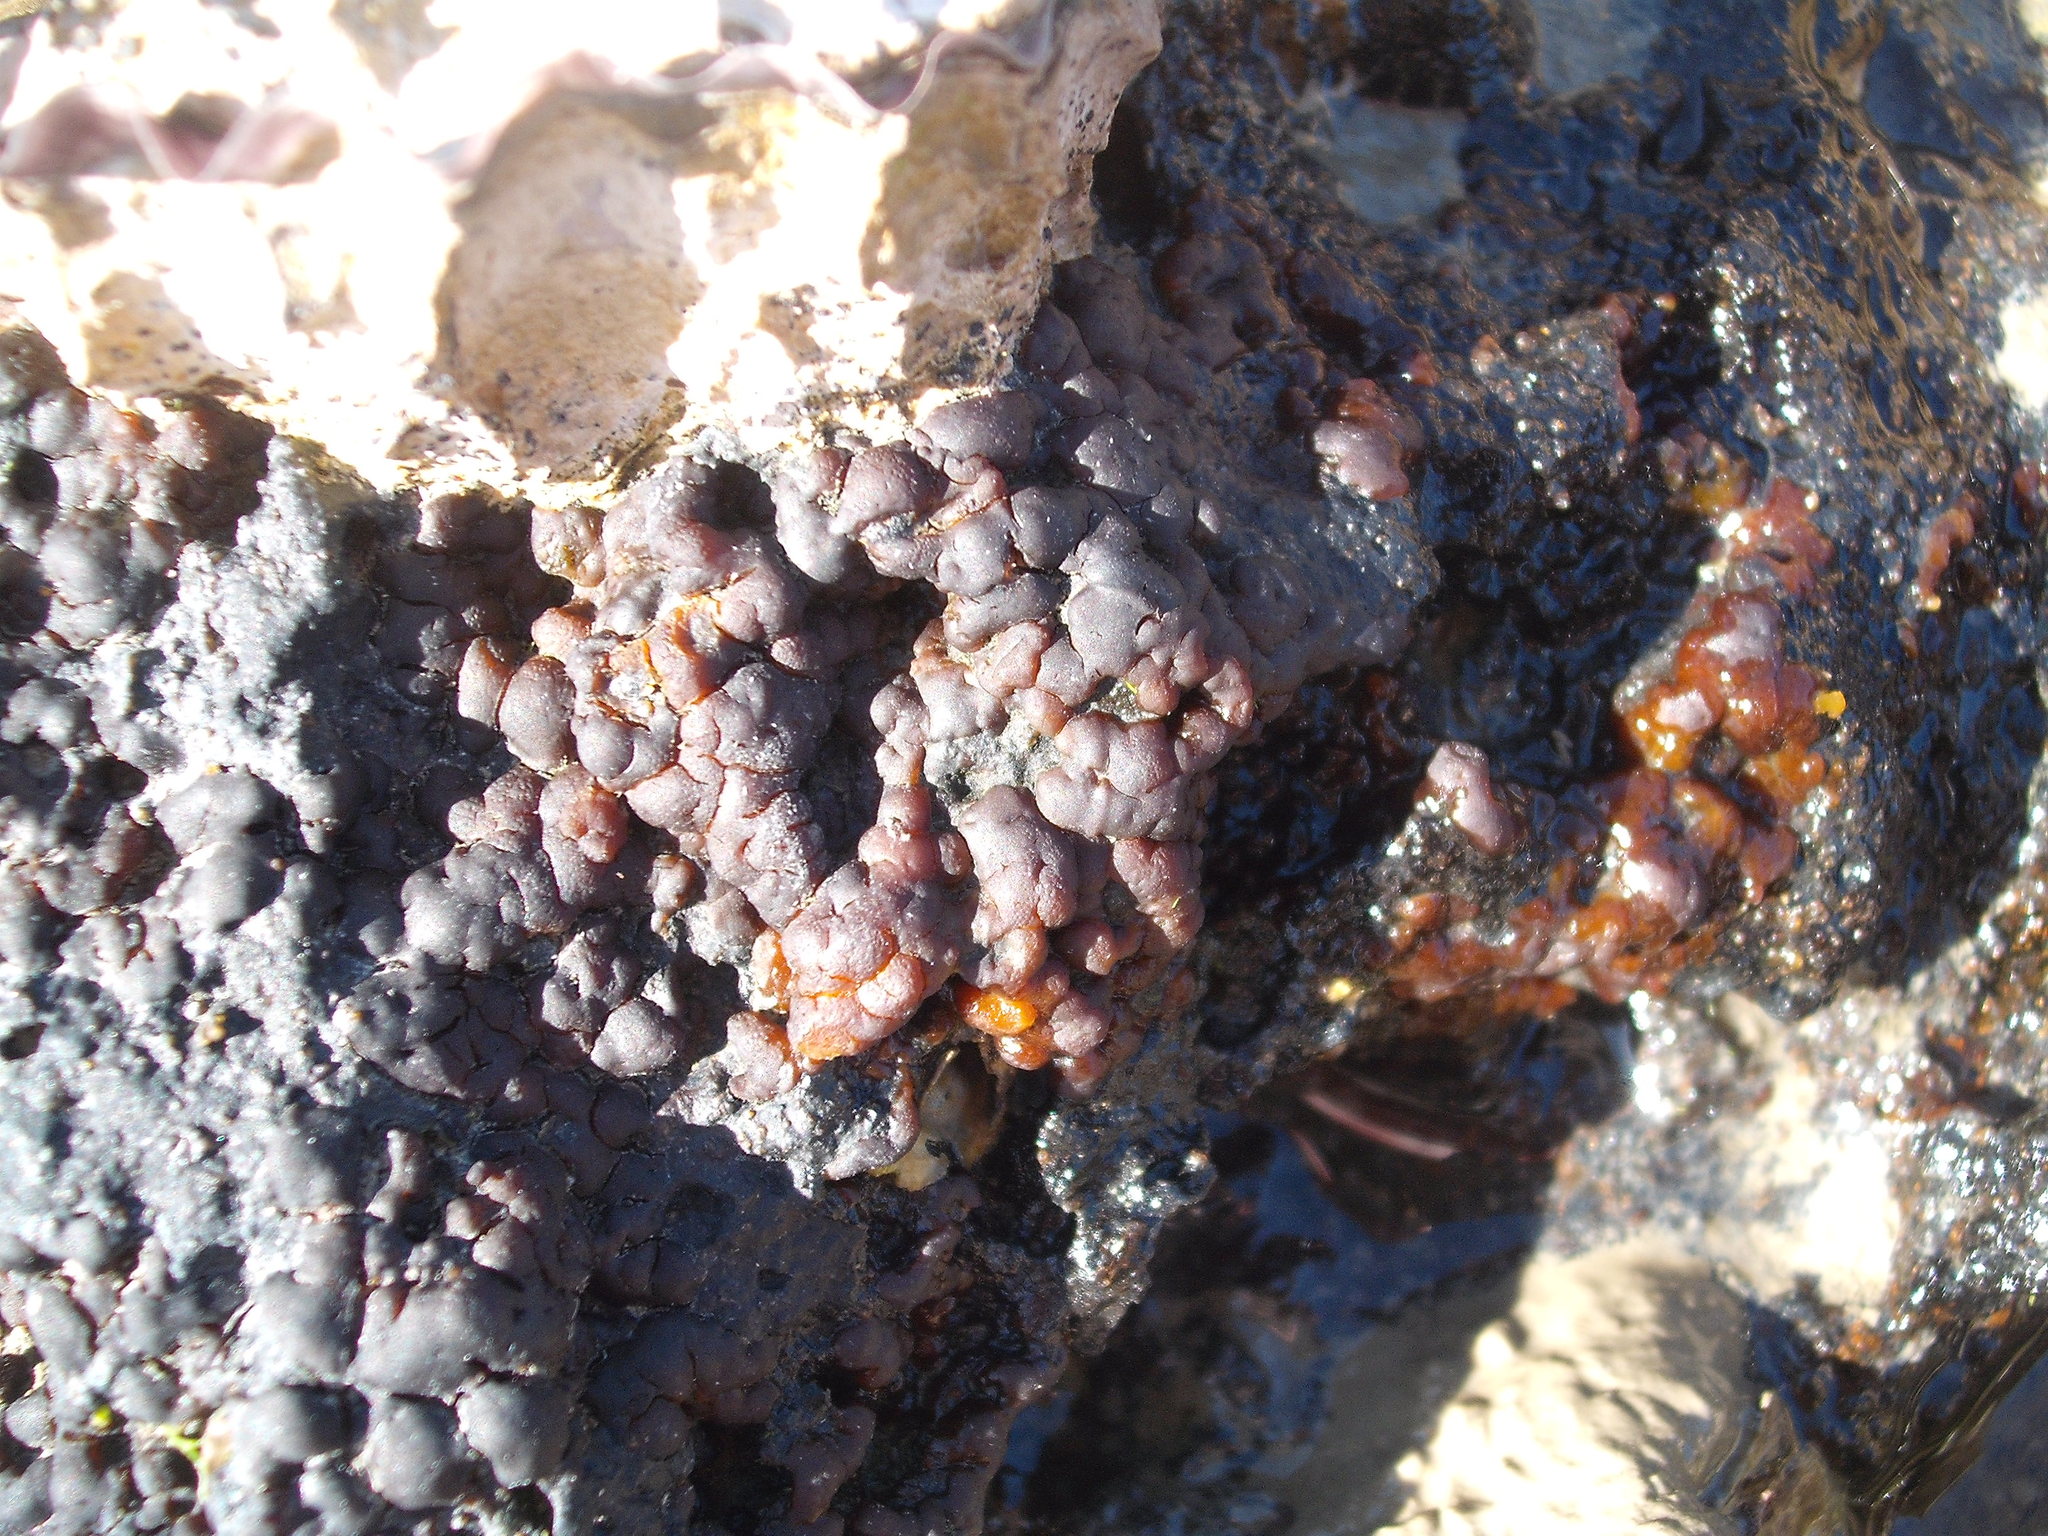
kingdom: Plantae
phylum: Rhodophyta
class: Florideophyceae
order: Hildenbrandiales
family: Hildenbrandiaceae
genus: Apophlaea
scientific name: Apophlaea
